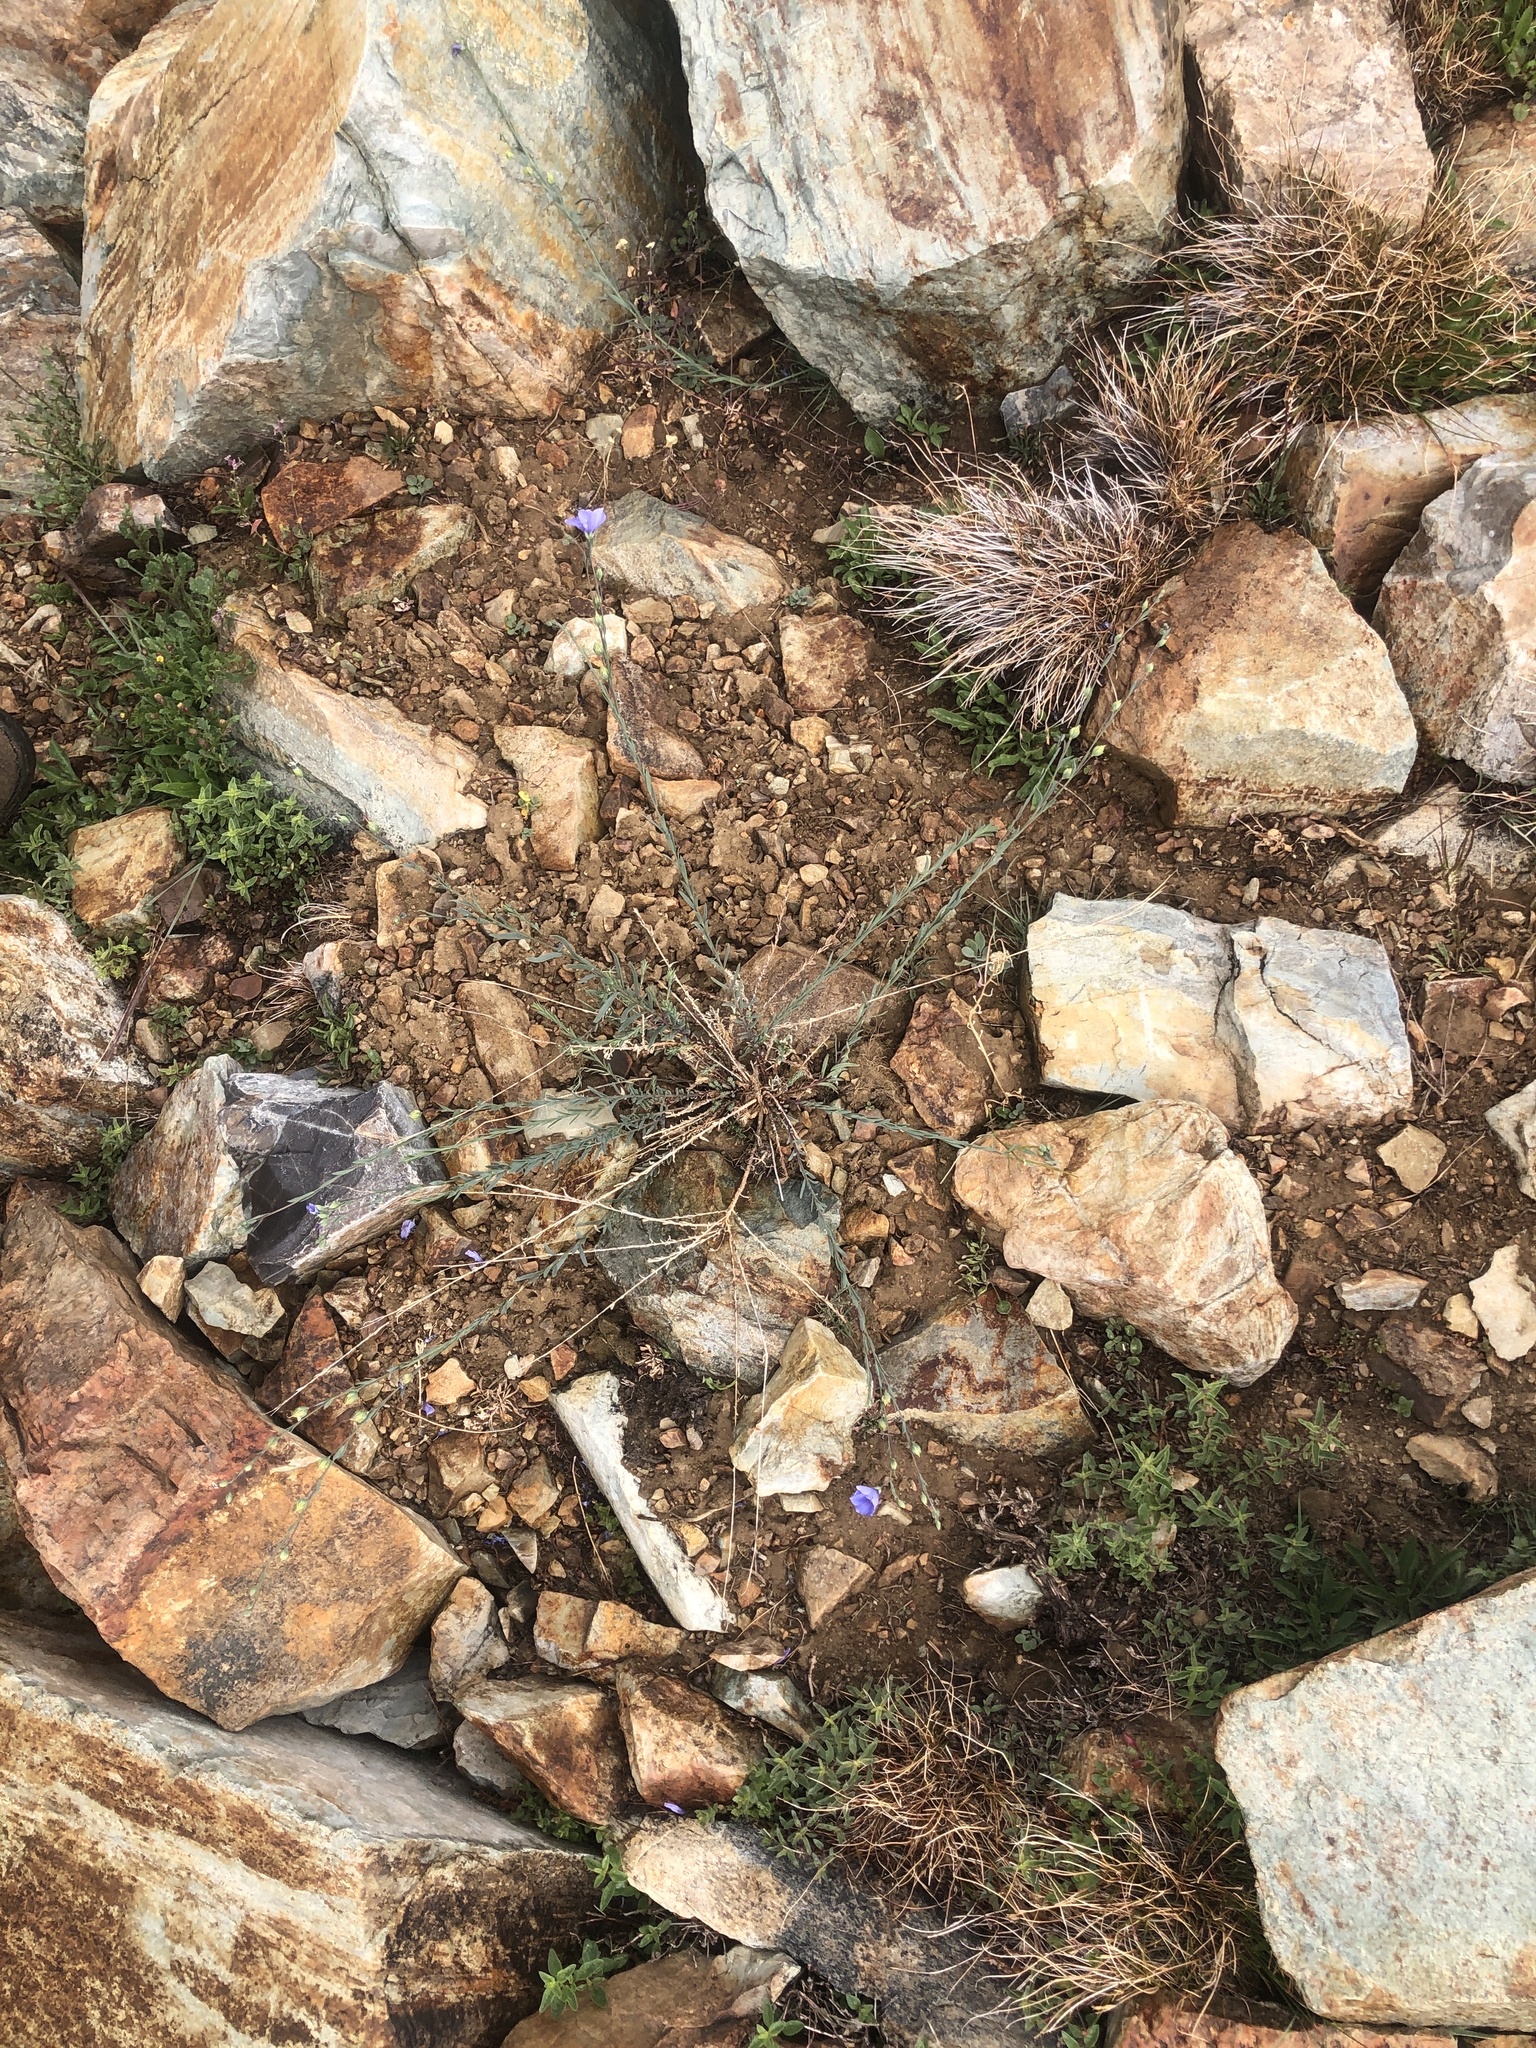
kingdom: Plantae
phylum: Tracheophyta
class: Magnoliopsida
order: Malpighiales
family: Linaceae
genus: Linum
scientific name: Linum lewisii
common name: Prairie flax
